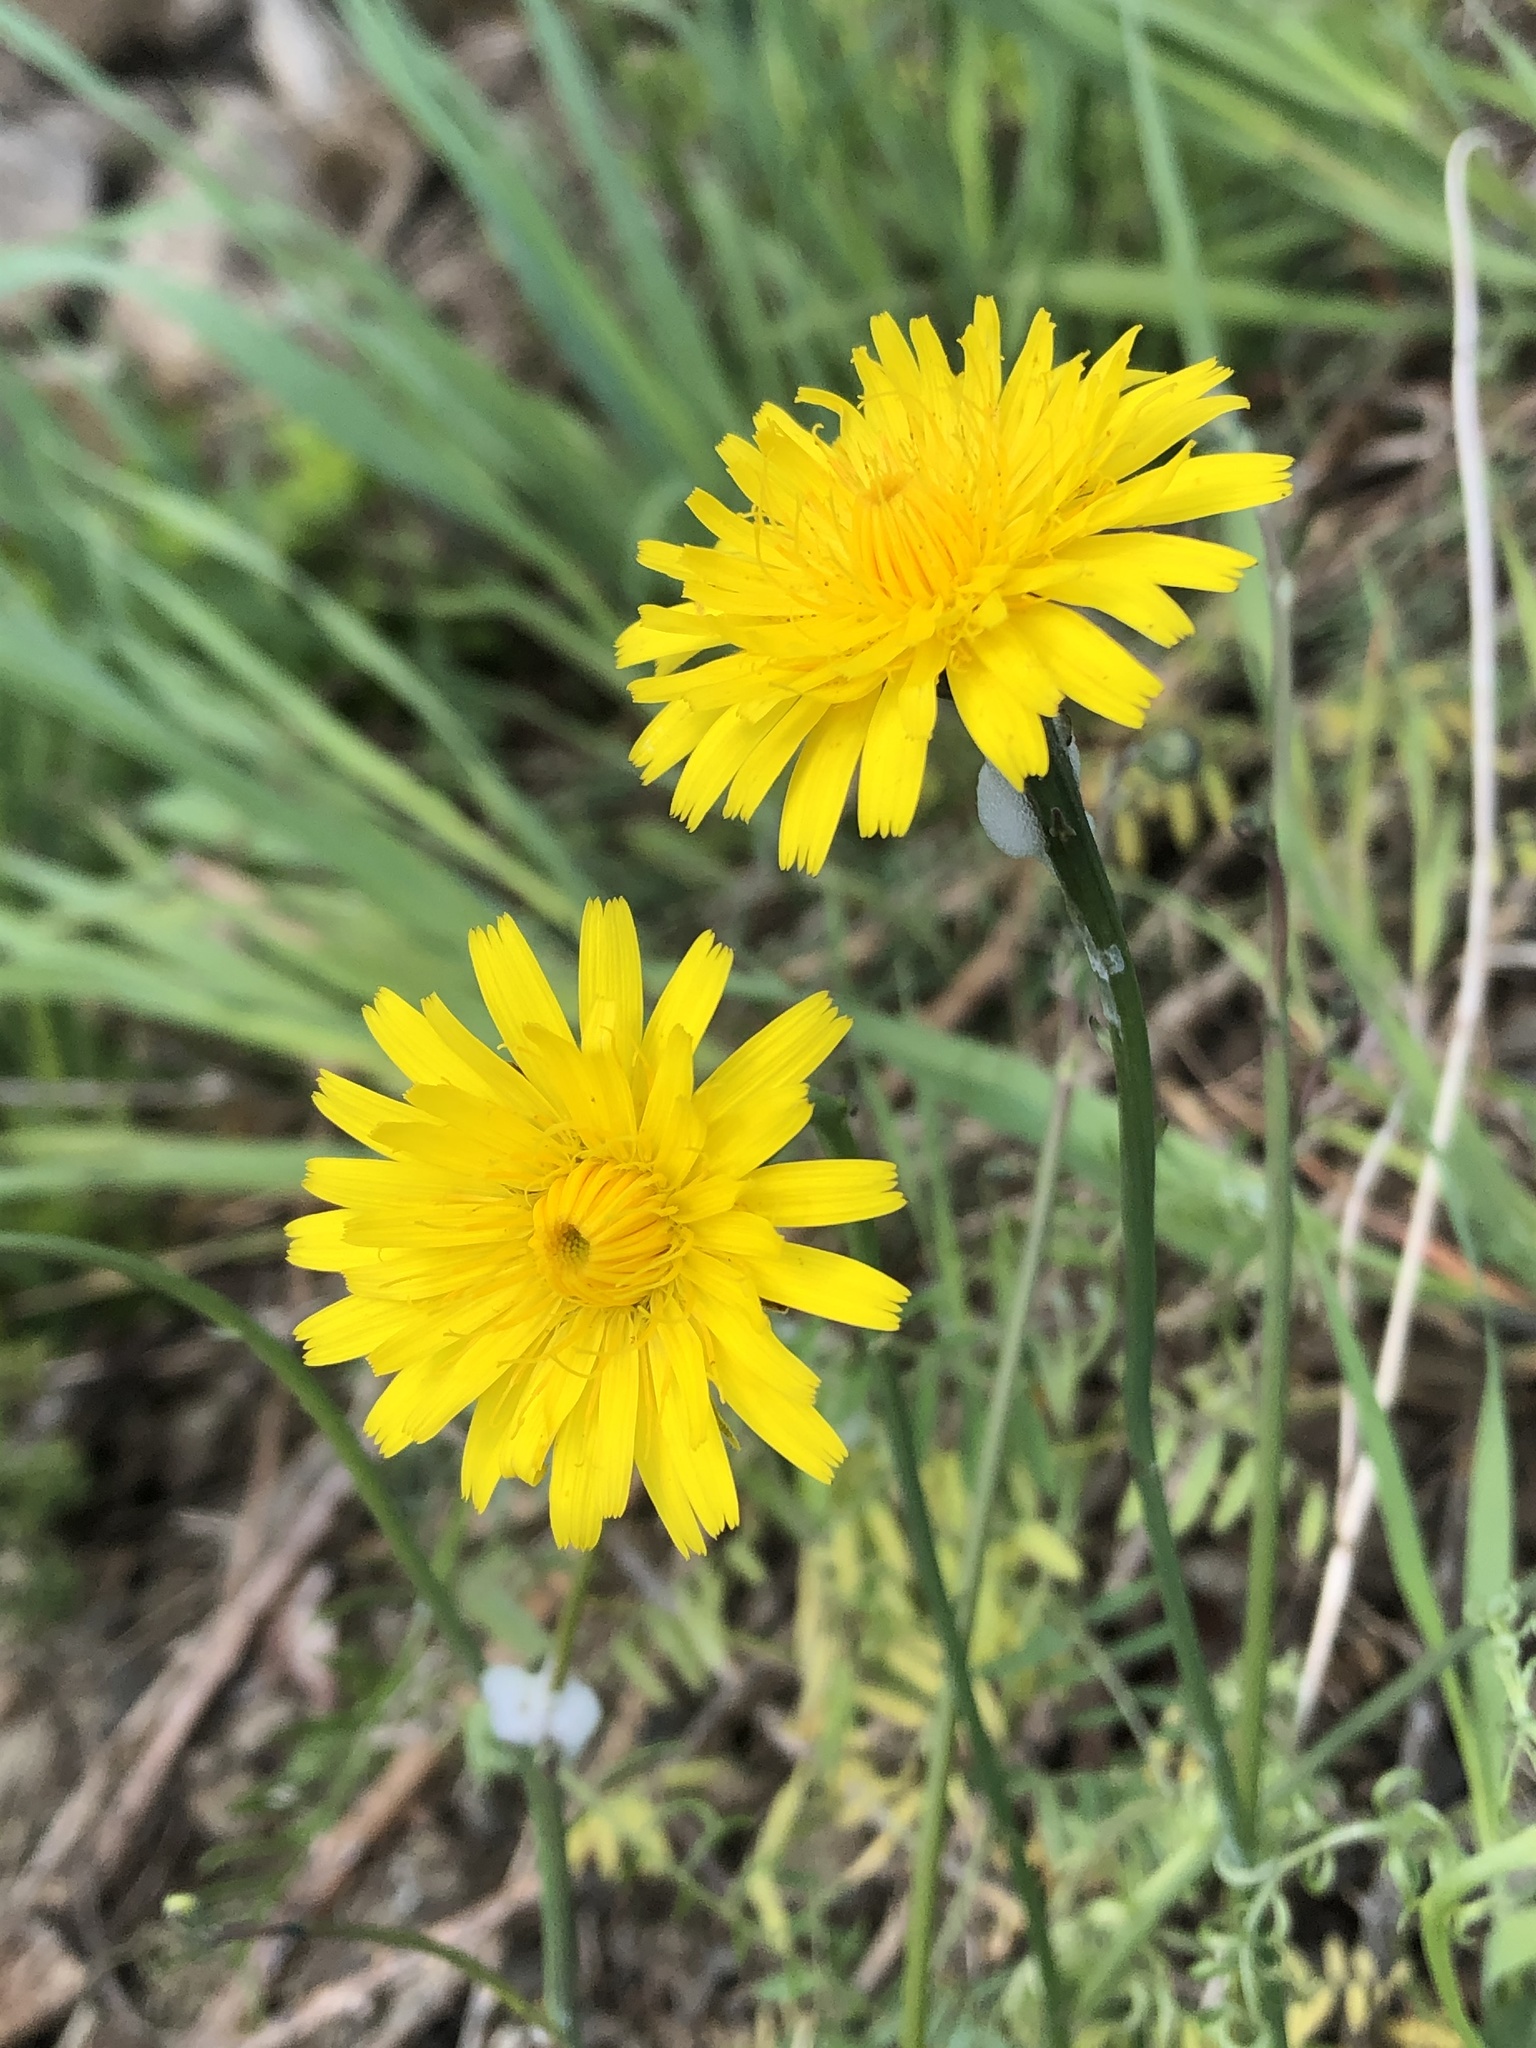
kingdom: Plantae
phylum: Tracheophyta
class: Magnoliopsida
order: Asterales
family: Asteraceae
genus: Hypochaeris
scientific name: Hypochaeris radicata
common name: Flatweed
